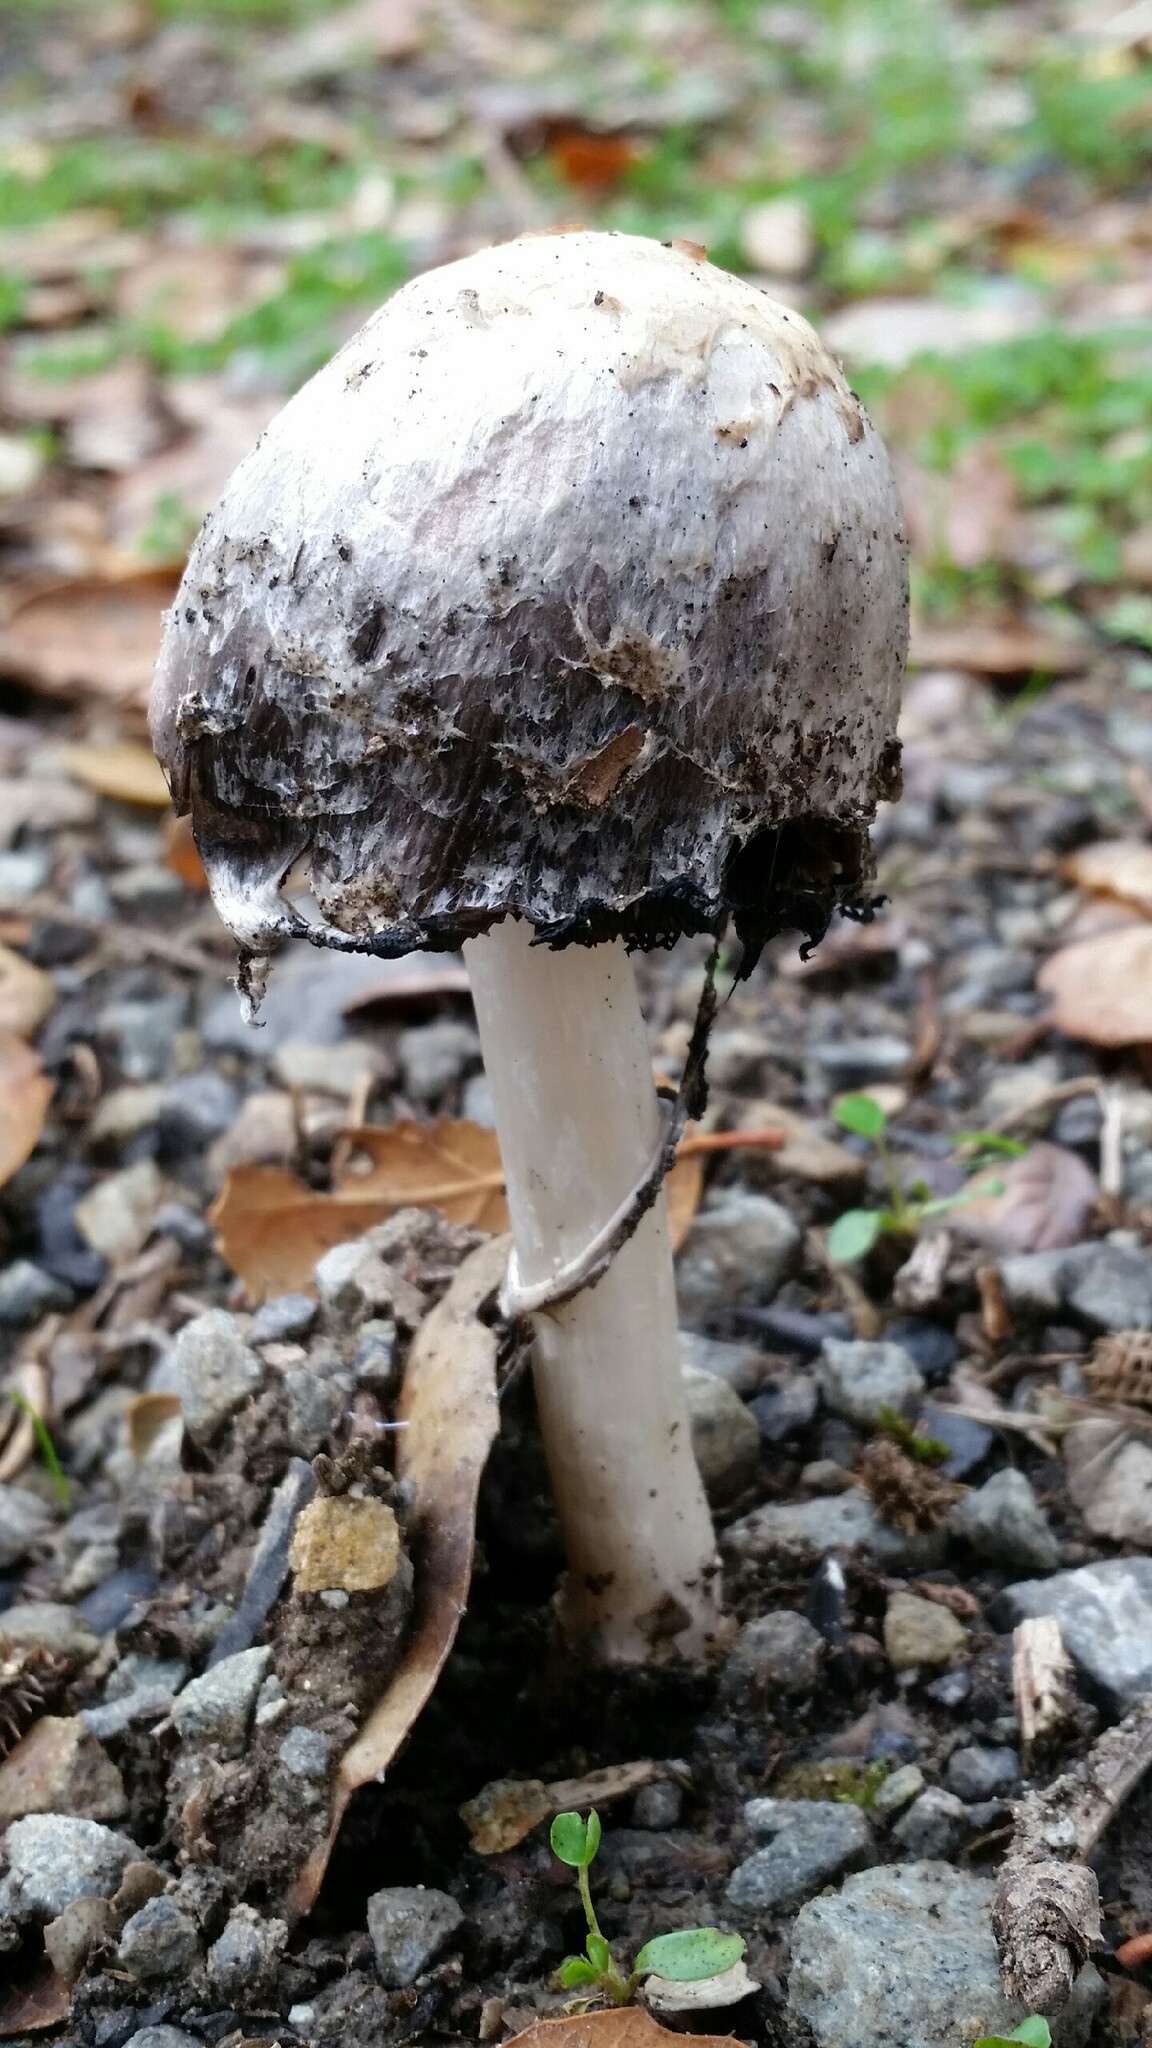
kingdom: Fungi
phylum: Basidiomycota
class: Agaricomycetes
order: Agaricales
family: Agaricaceae
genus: Coprinus
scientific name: Coprinus comatus
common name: Lawyer's wig
